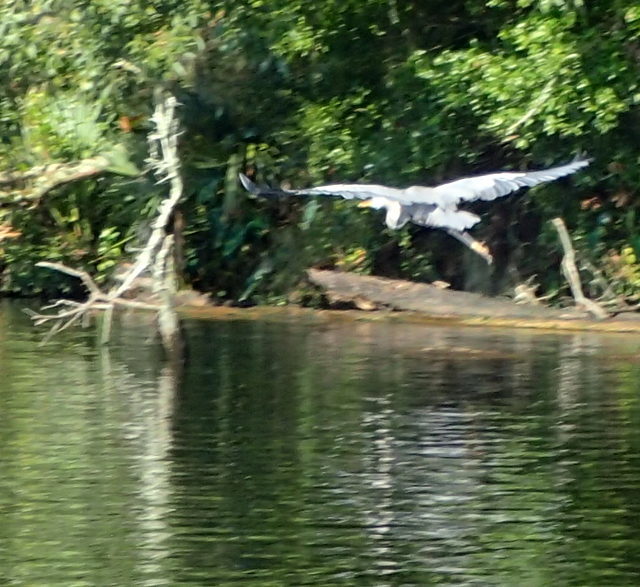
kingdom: Animalia
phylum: Chordata
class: Aves
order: Pelecaniformes
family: Ardeidae
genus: Ardea
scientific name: Ardea herodias
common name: Great blue heron
